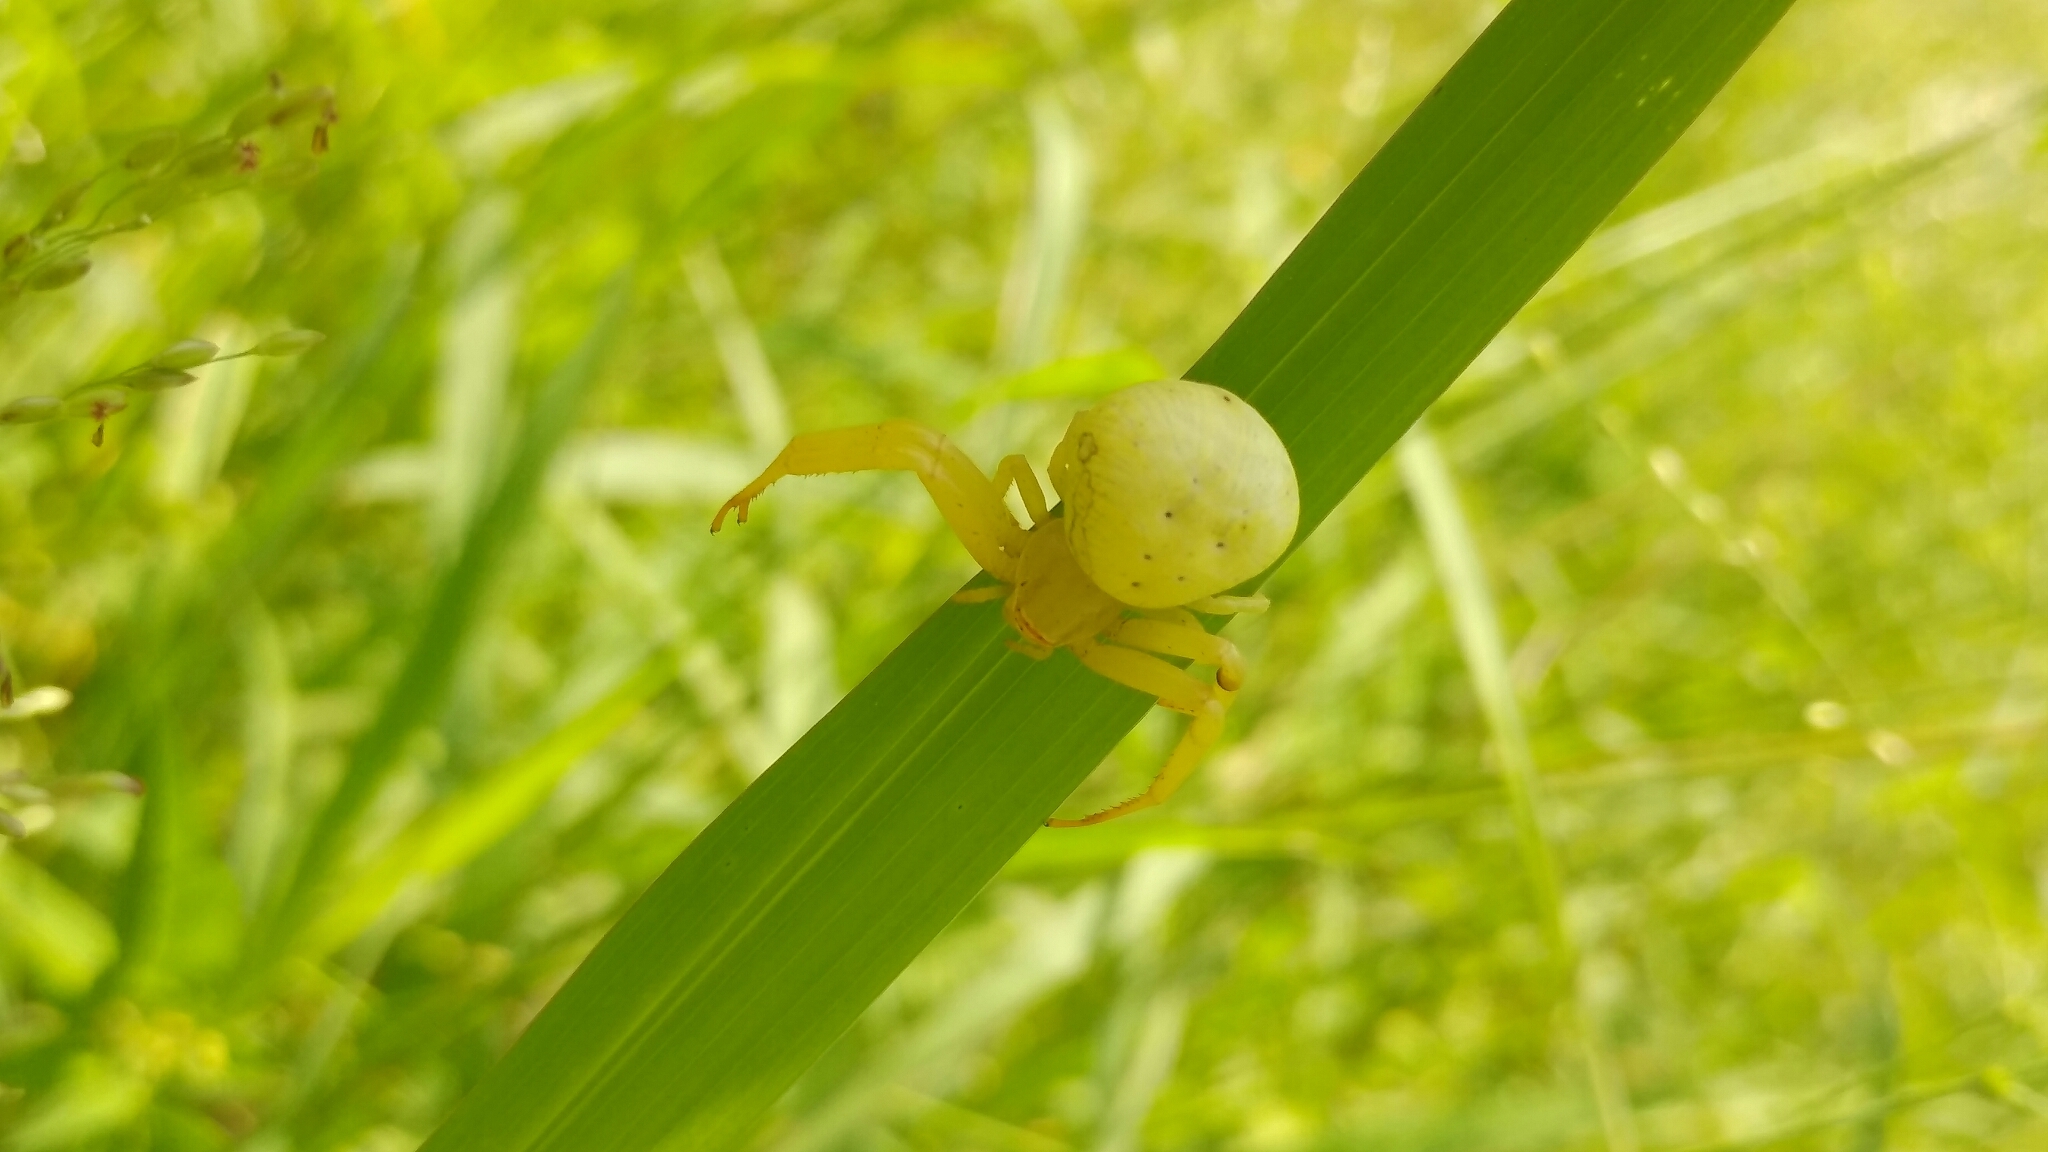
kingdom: Animalia
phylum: Arthropoda
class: Arachnida
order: Araneae
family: Thomisidae
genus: Misumena
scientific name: Misumena vatia
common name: Goldenrod crab spider
